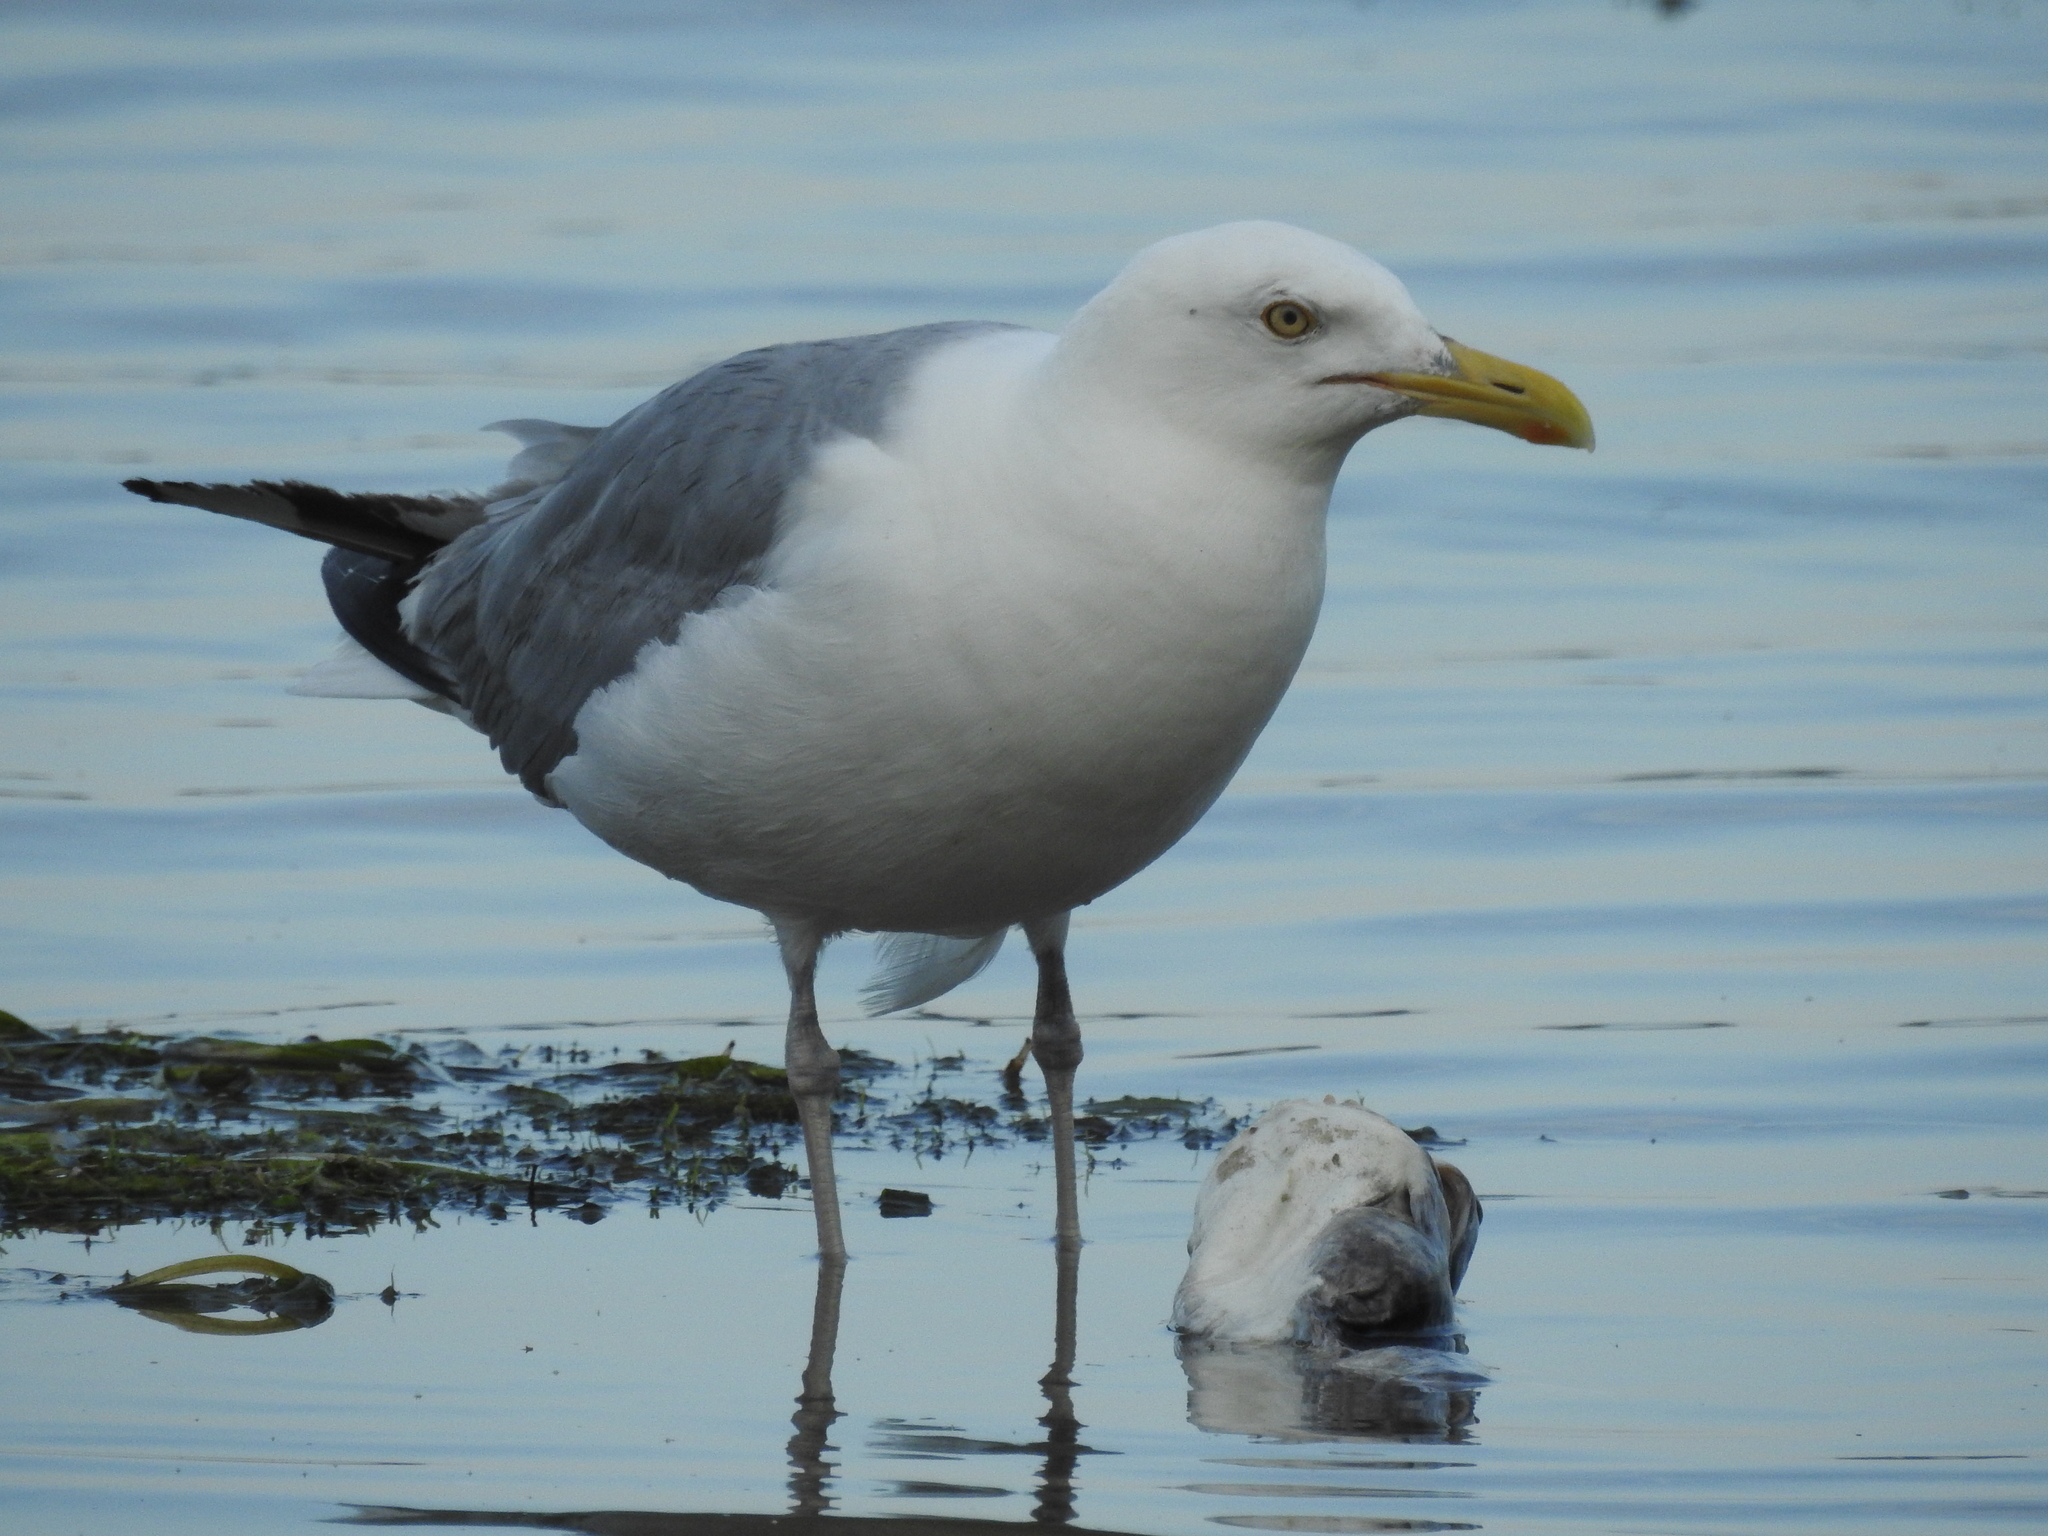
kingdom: Animalia
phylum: Chordata
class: Aves
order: Charadriiformes
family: Laridae
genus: Larus
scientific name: Larus argentatus
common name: Herring gull
